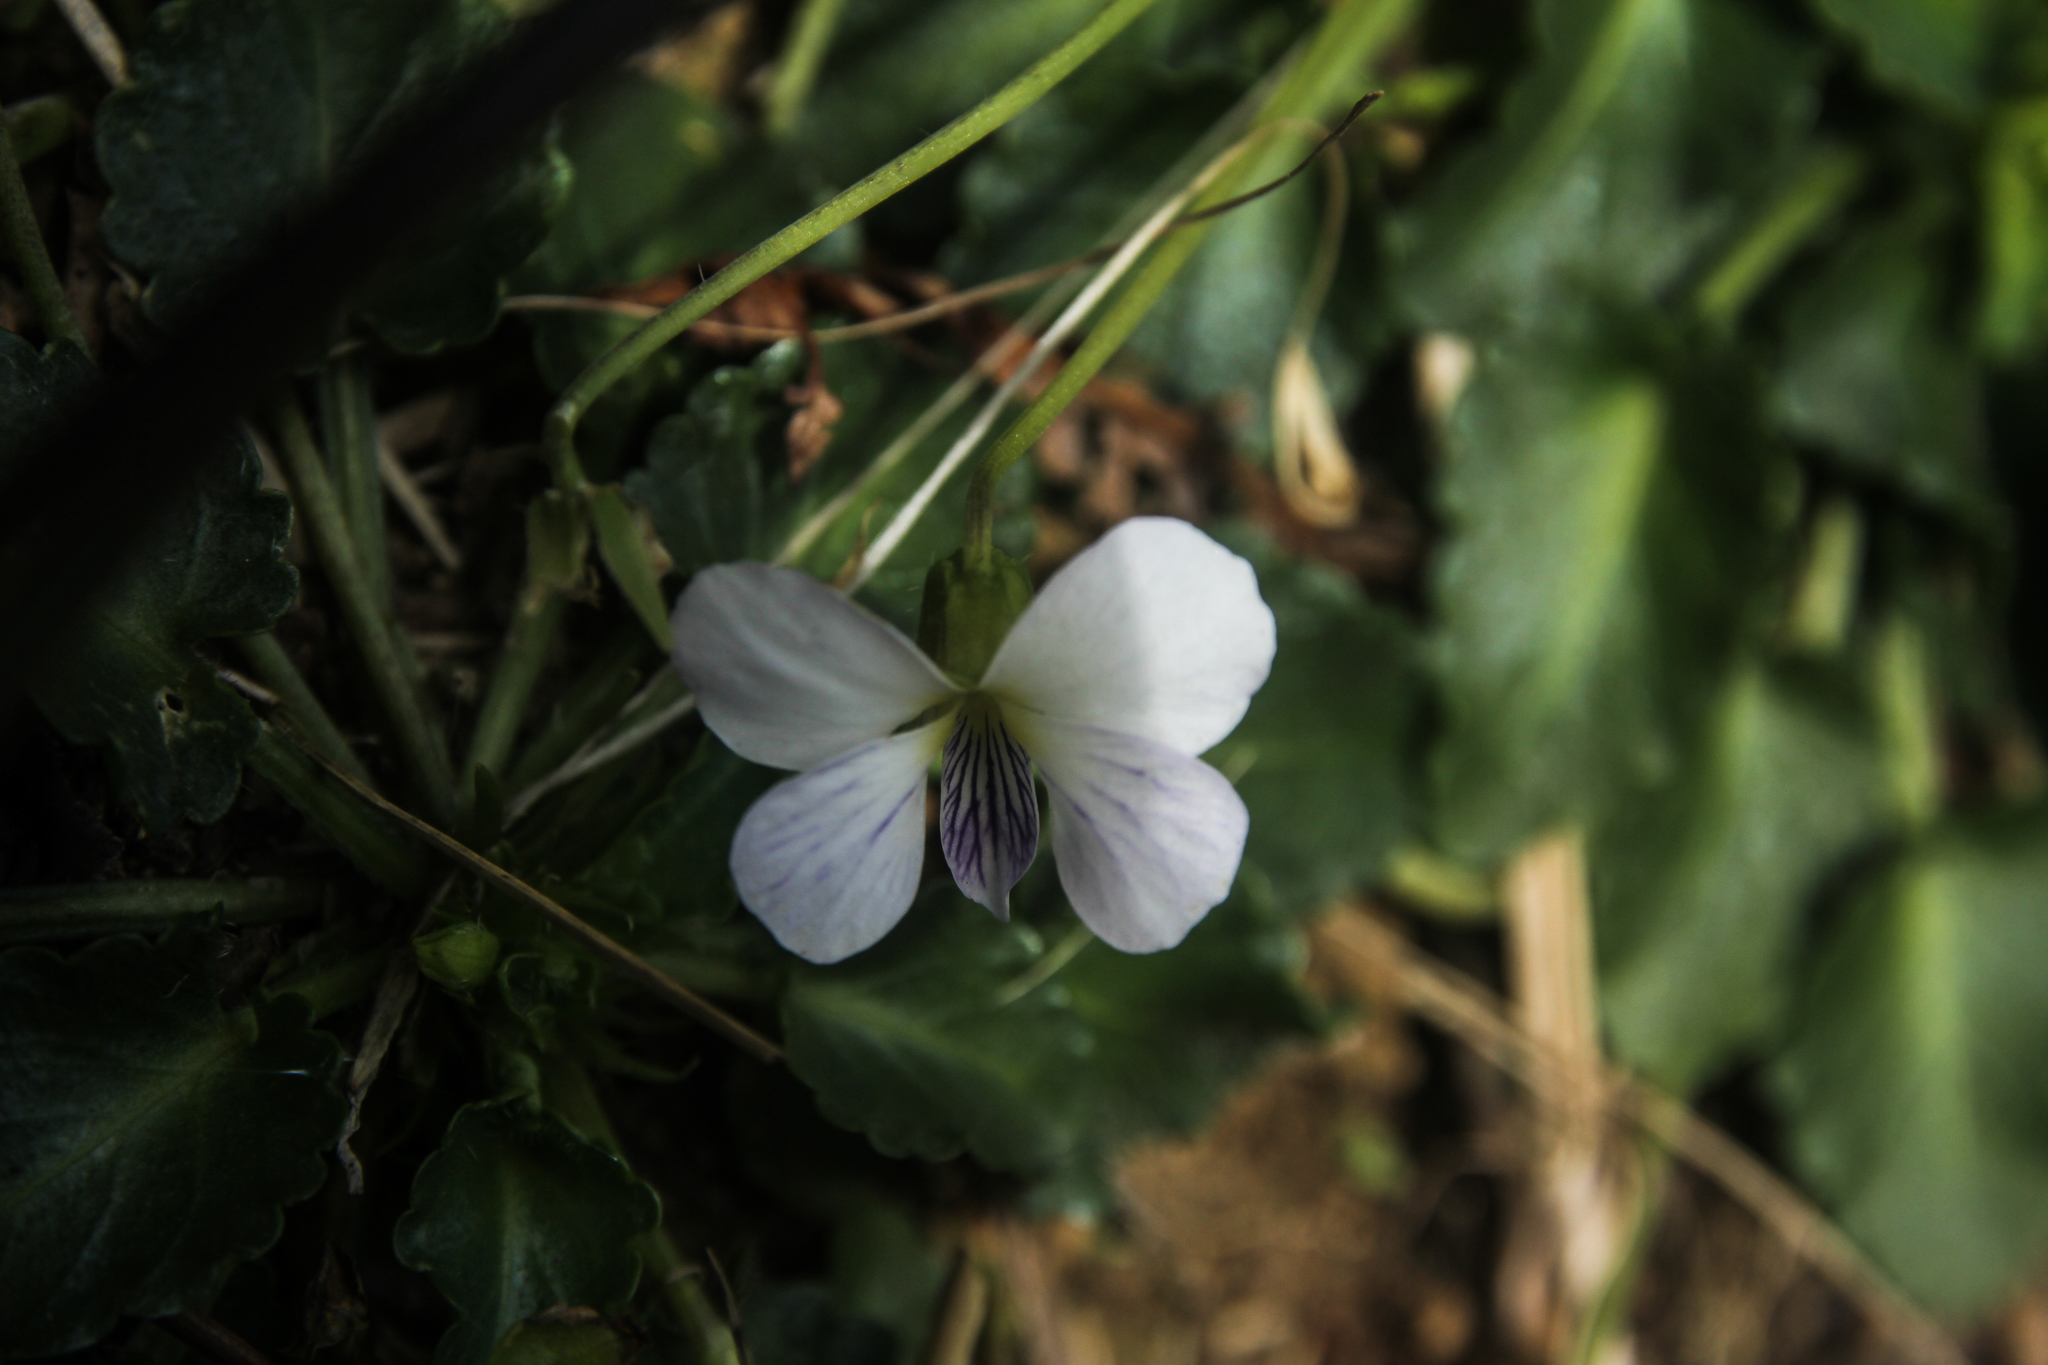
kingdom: Plantae
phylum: Tracheophyta
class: Magnoliopsida
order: Malpighiales
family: Violaceae
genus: Viola
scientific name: Viola nagasawae
